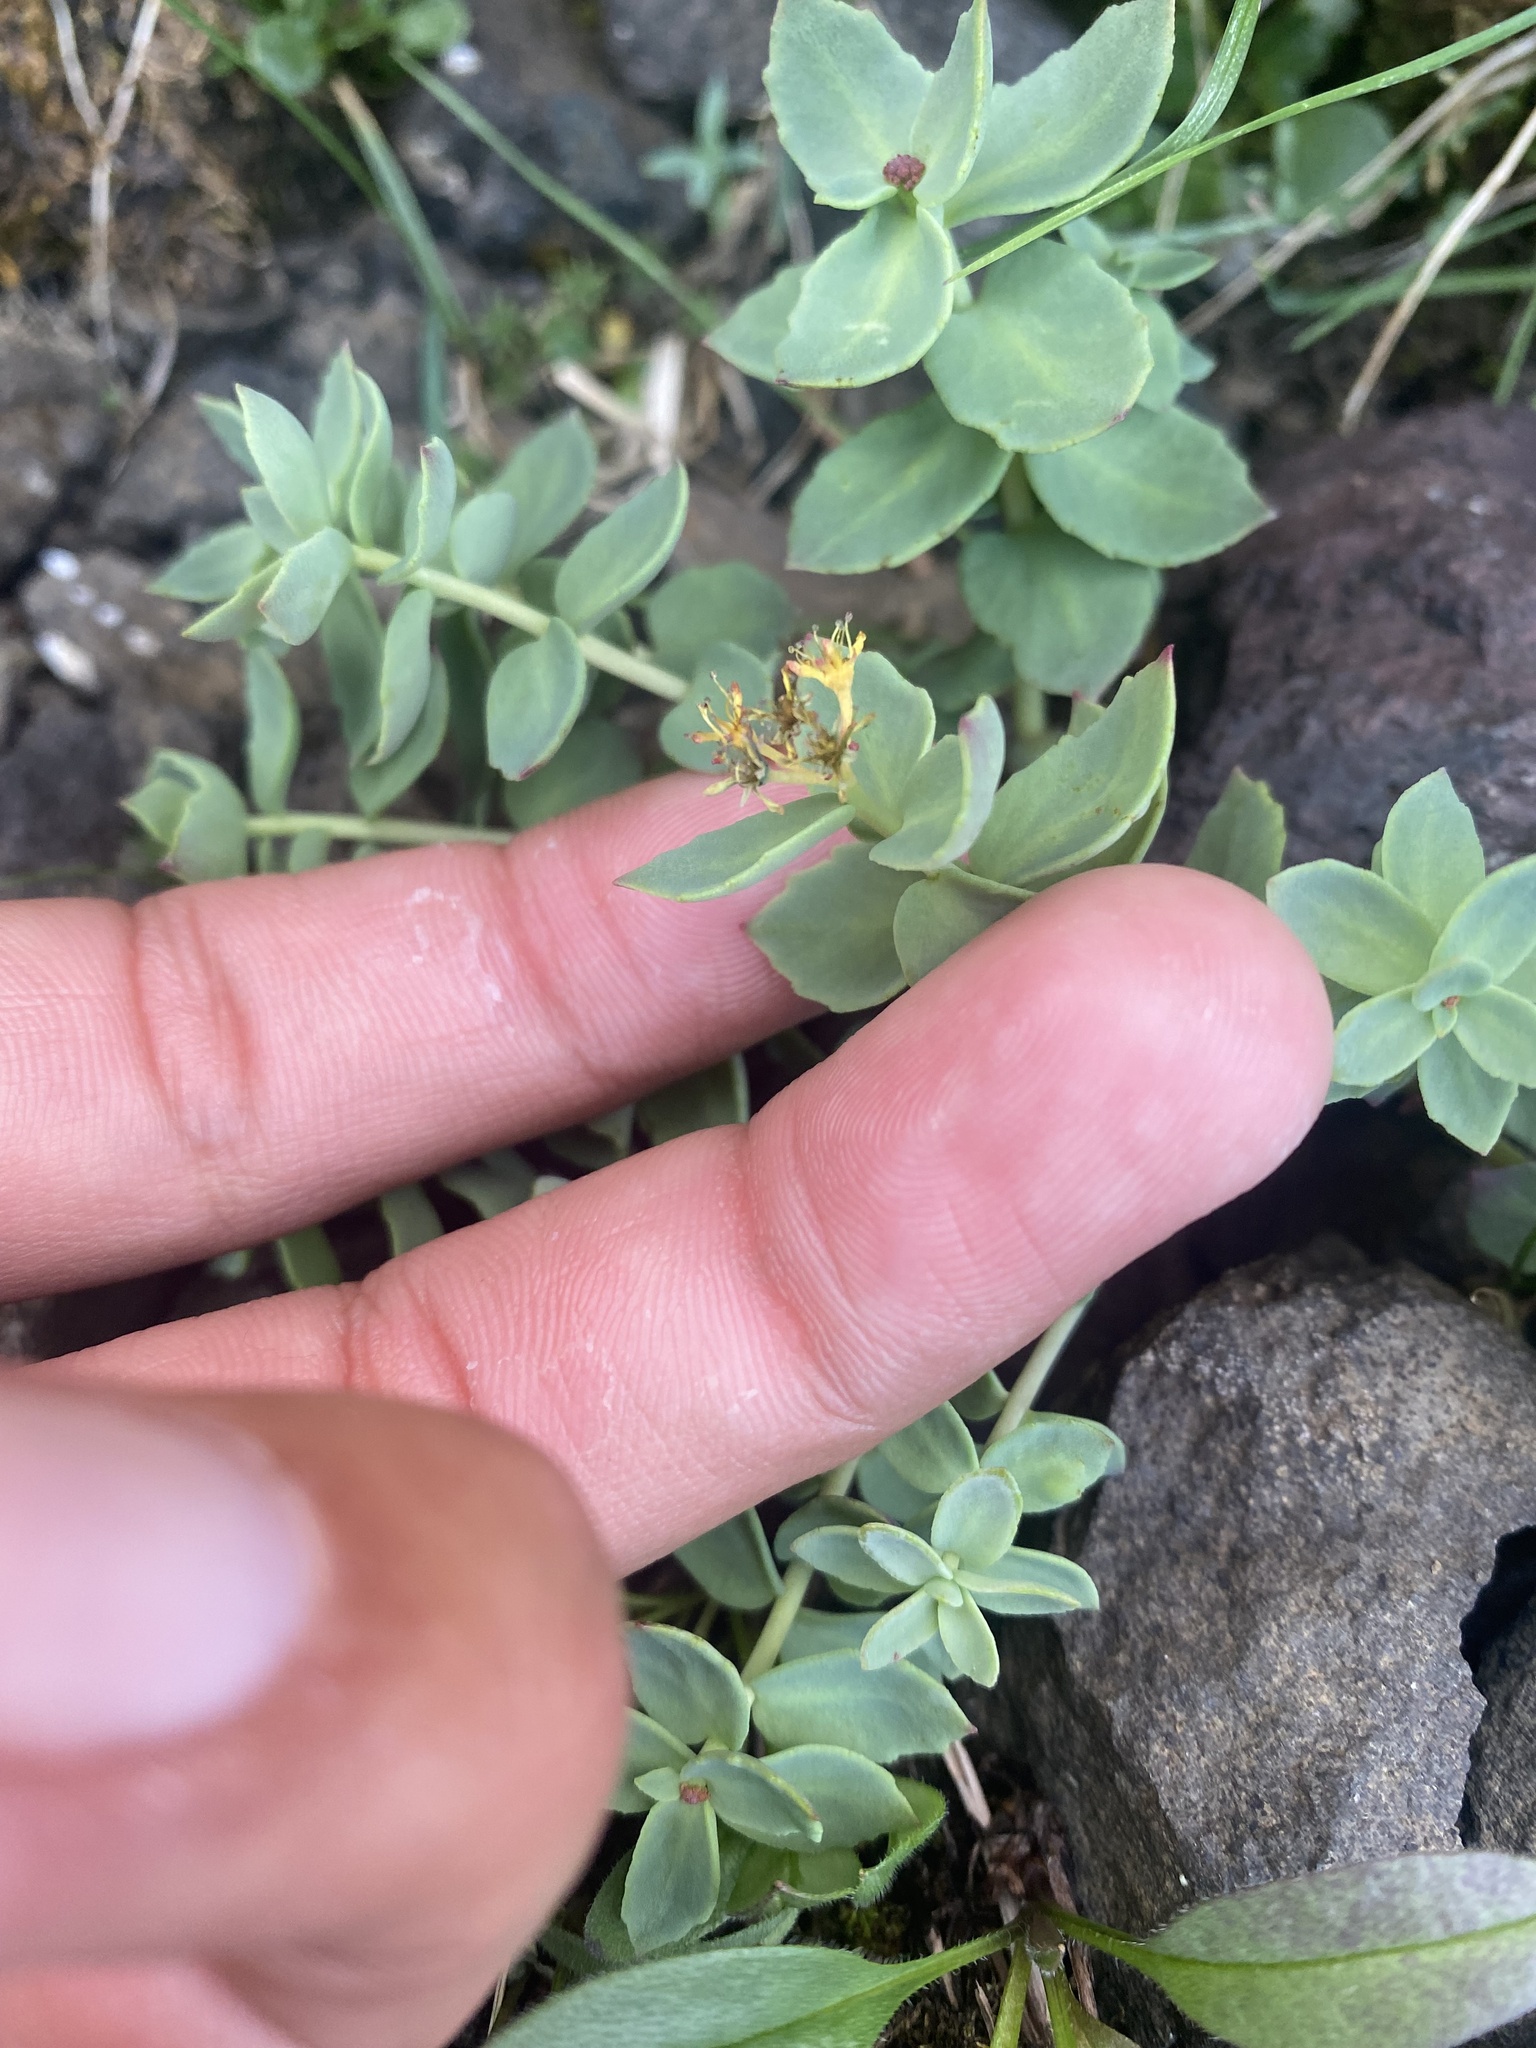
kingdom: Plantae
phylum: Tracheophyta
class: Magnoliopsida
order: Saxifragales
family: Crassulaceae
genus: Rhodiola
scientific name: Rhodiola rosea
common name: Roseroot
